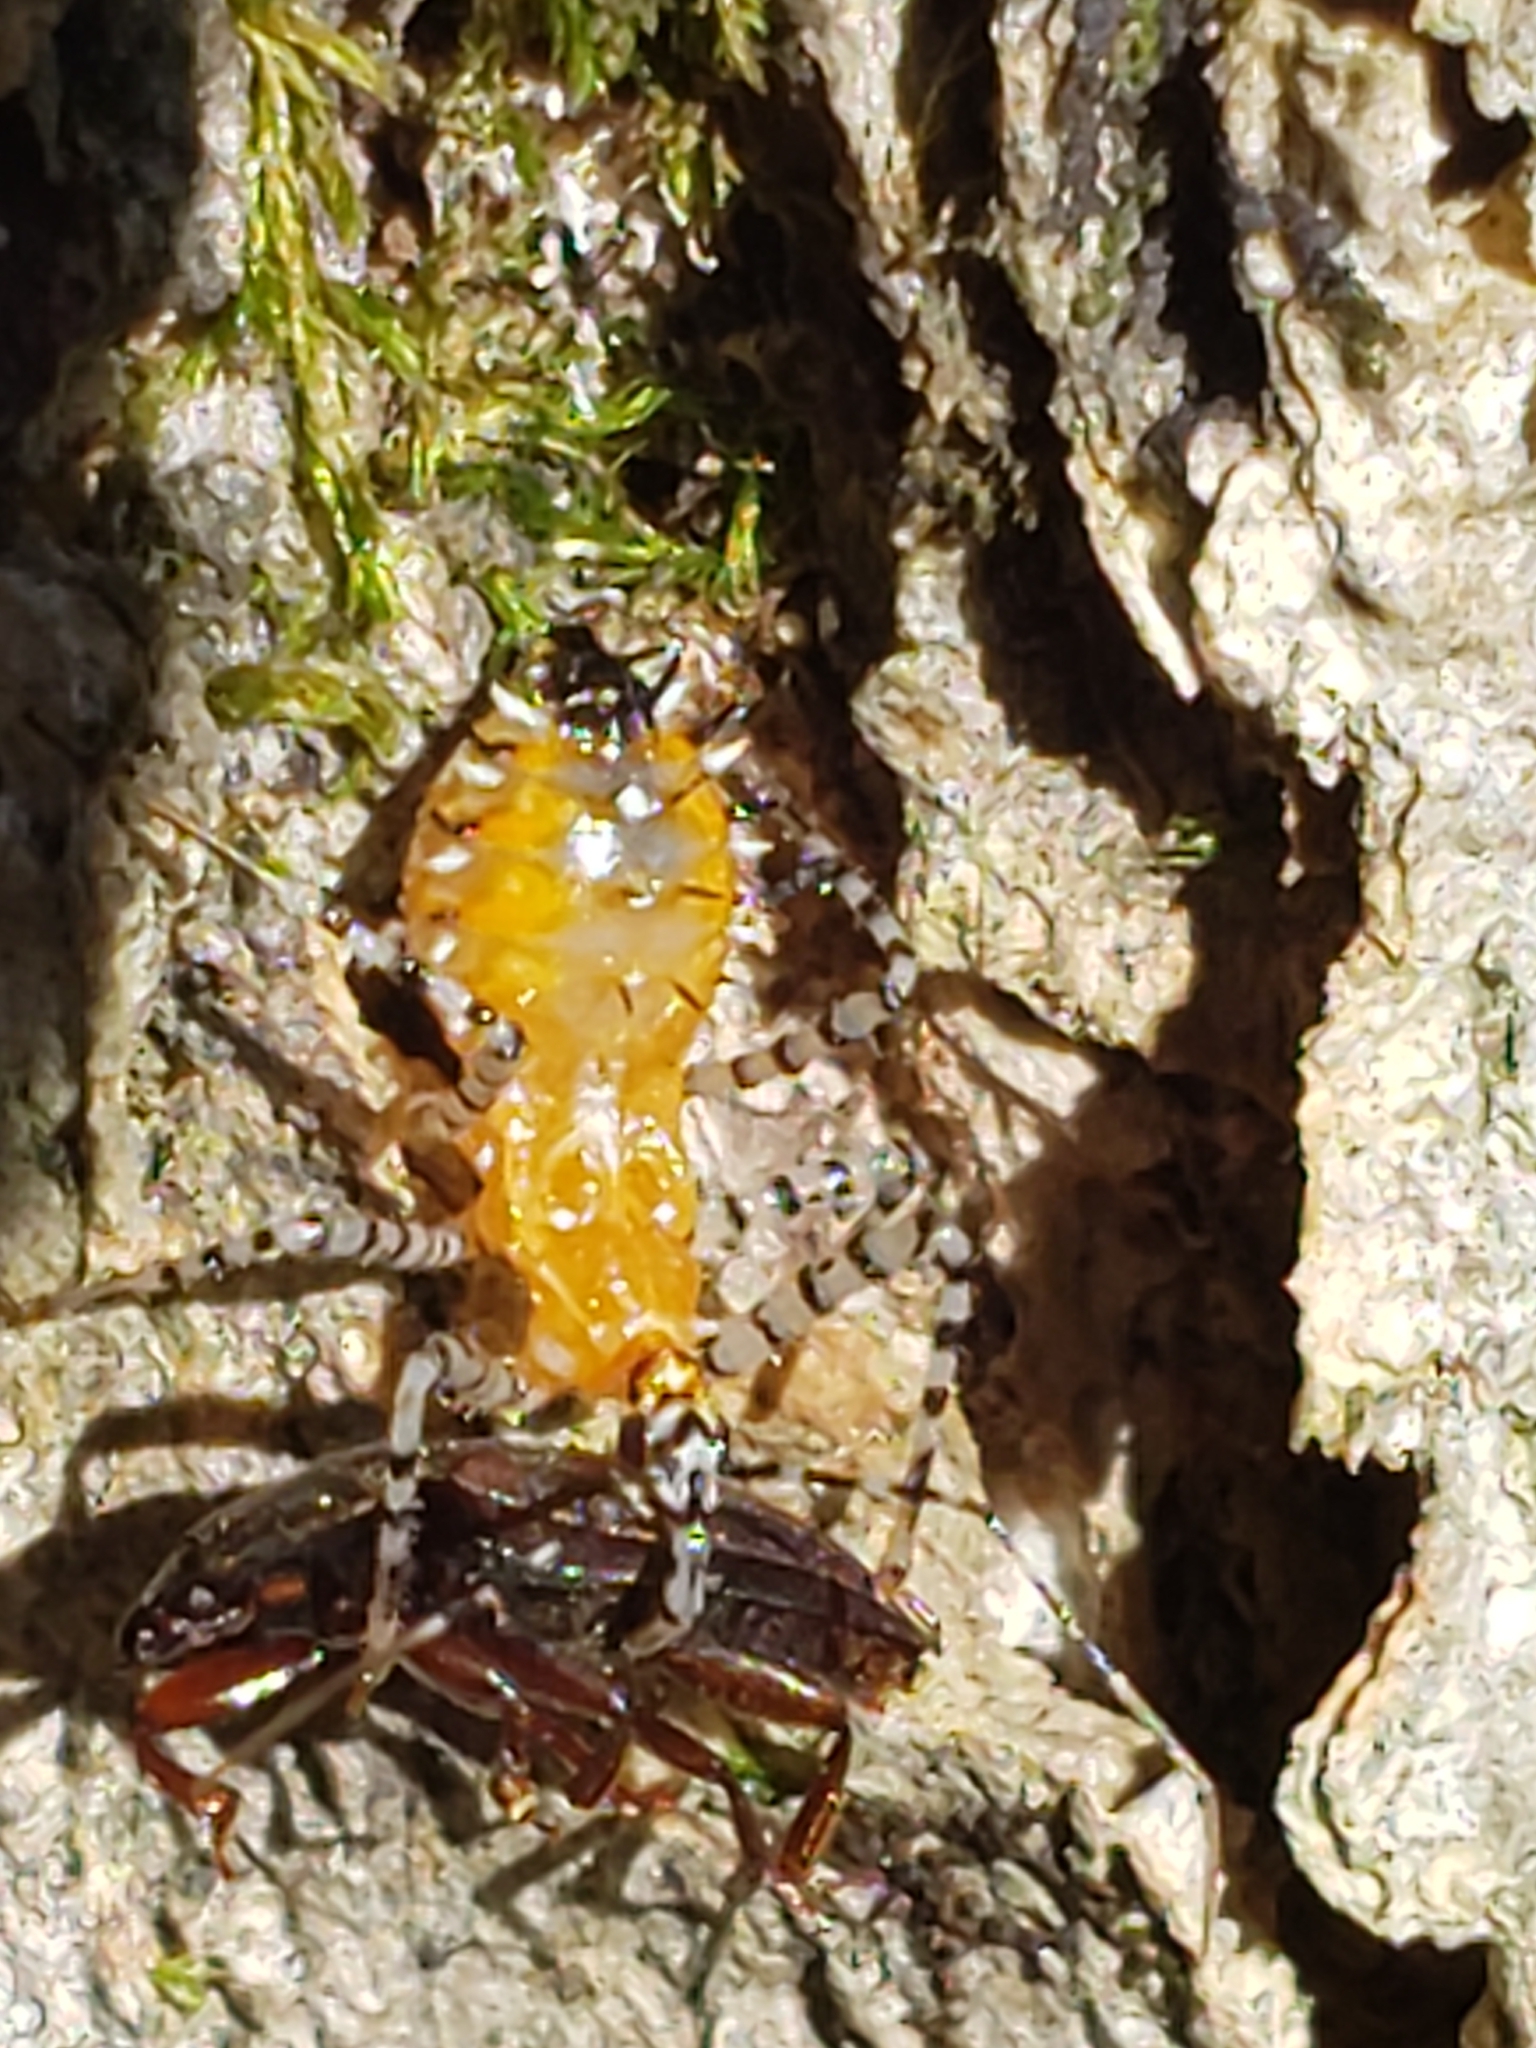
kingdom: Animalia
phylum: Arthropoda
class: Insecta
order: Hemiptera
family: Reduviidae
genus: Pselliopus
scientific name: Pselliopus cinctus
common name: Ringed assassin bug
